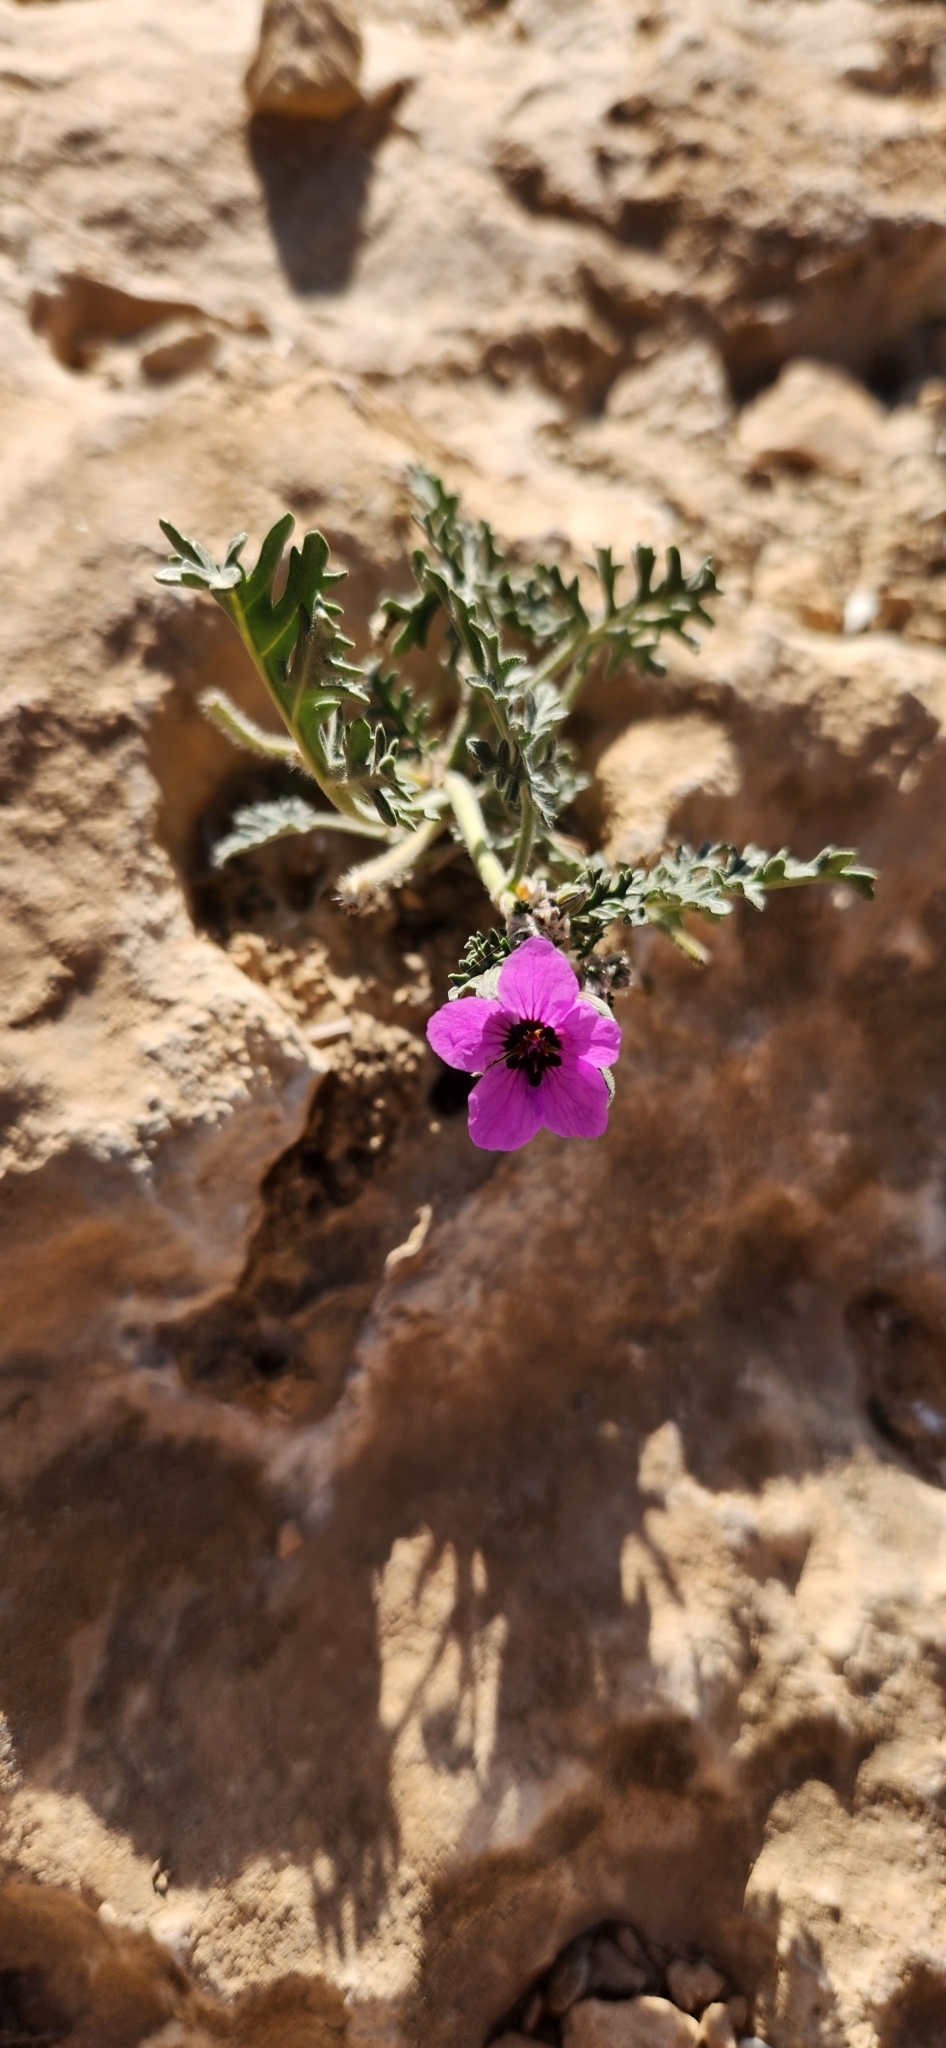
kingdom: Plantae
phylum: Tracheophyta
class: Magnoliopsida
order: Geraniales
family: Geraniaceae
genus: Erodium
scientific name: Erodium crassifolium
